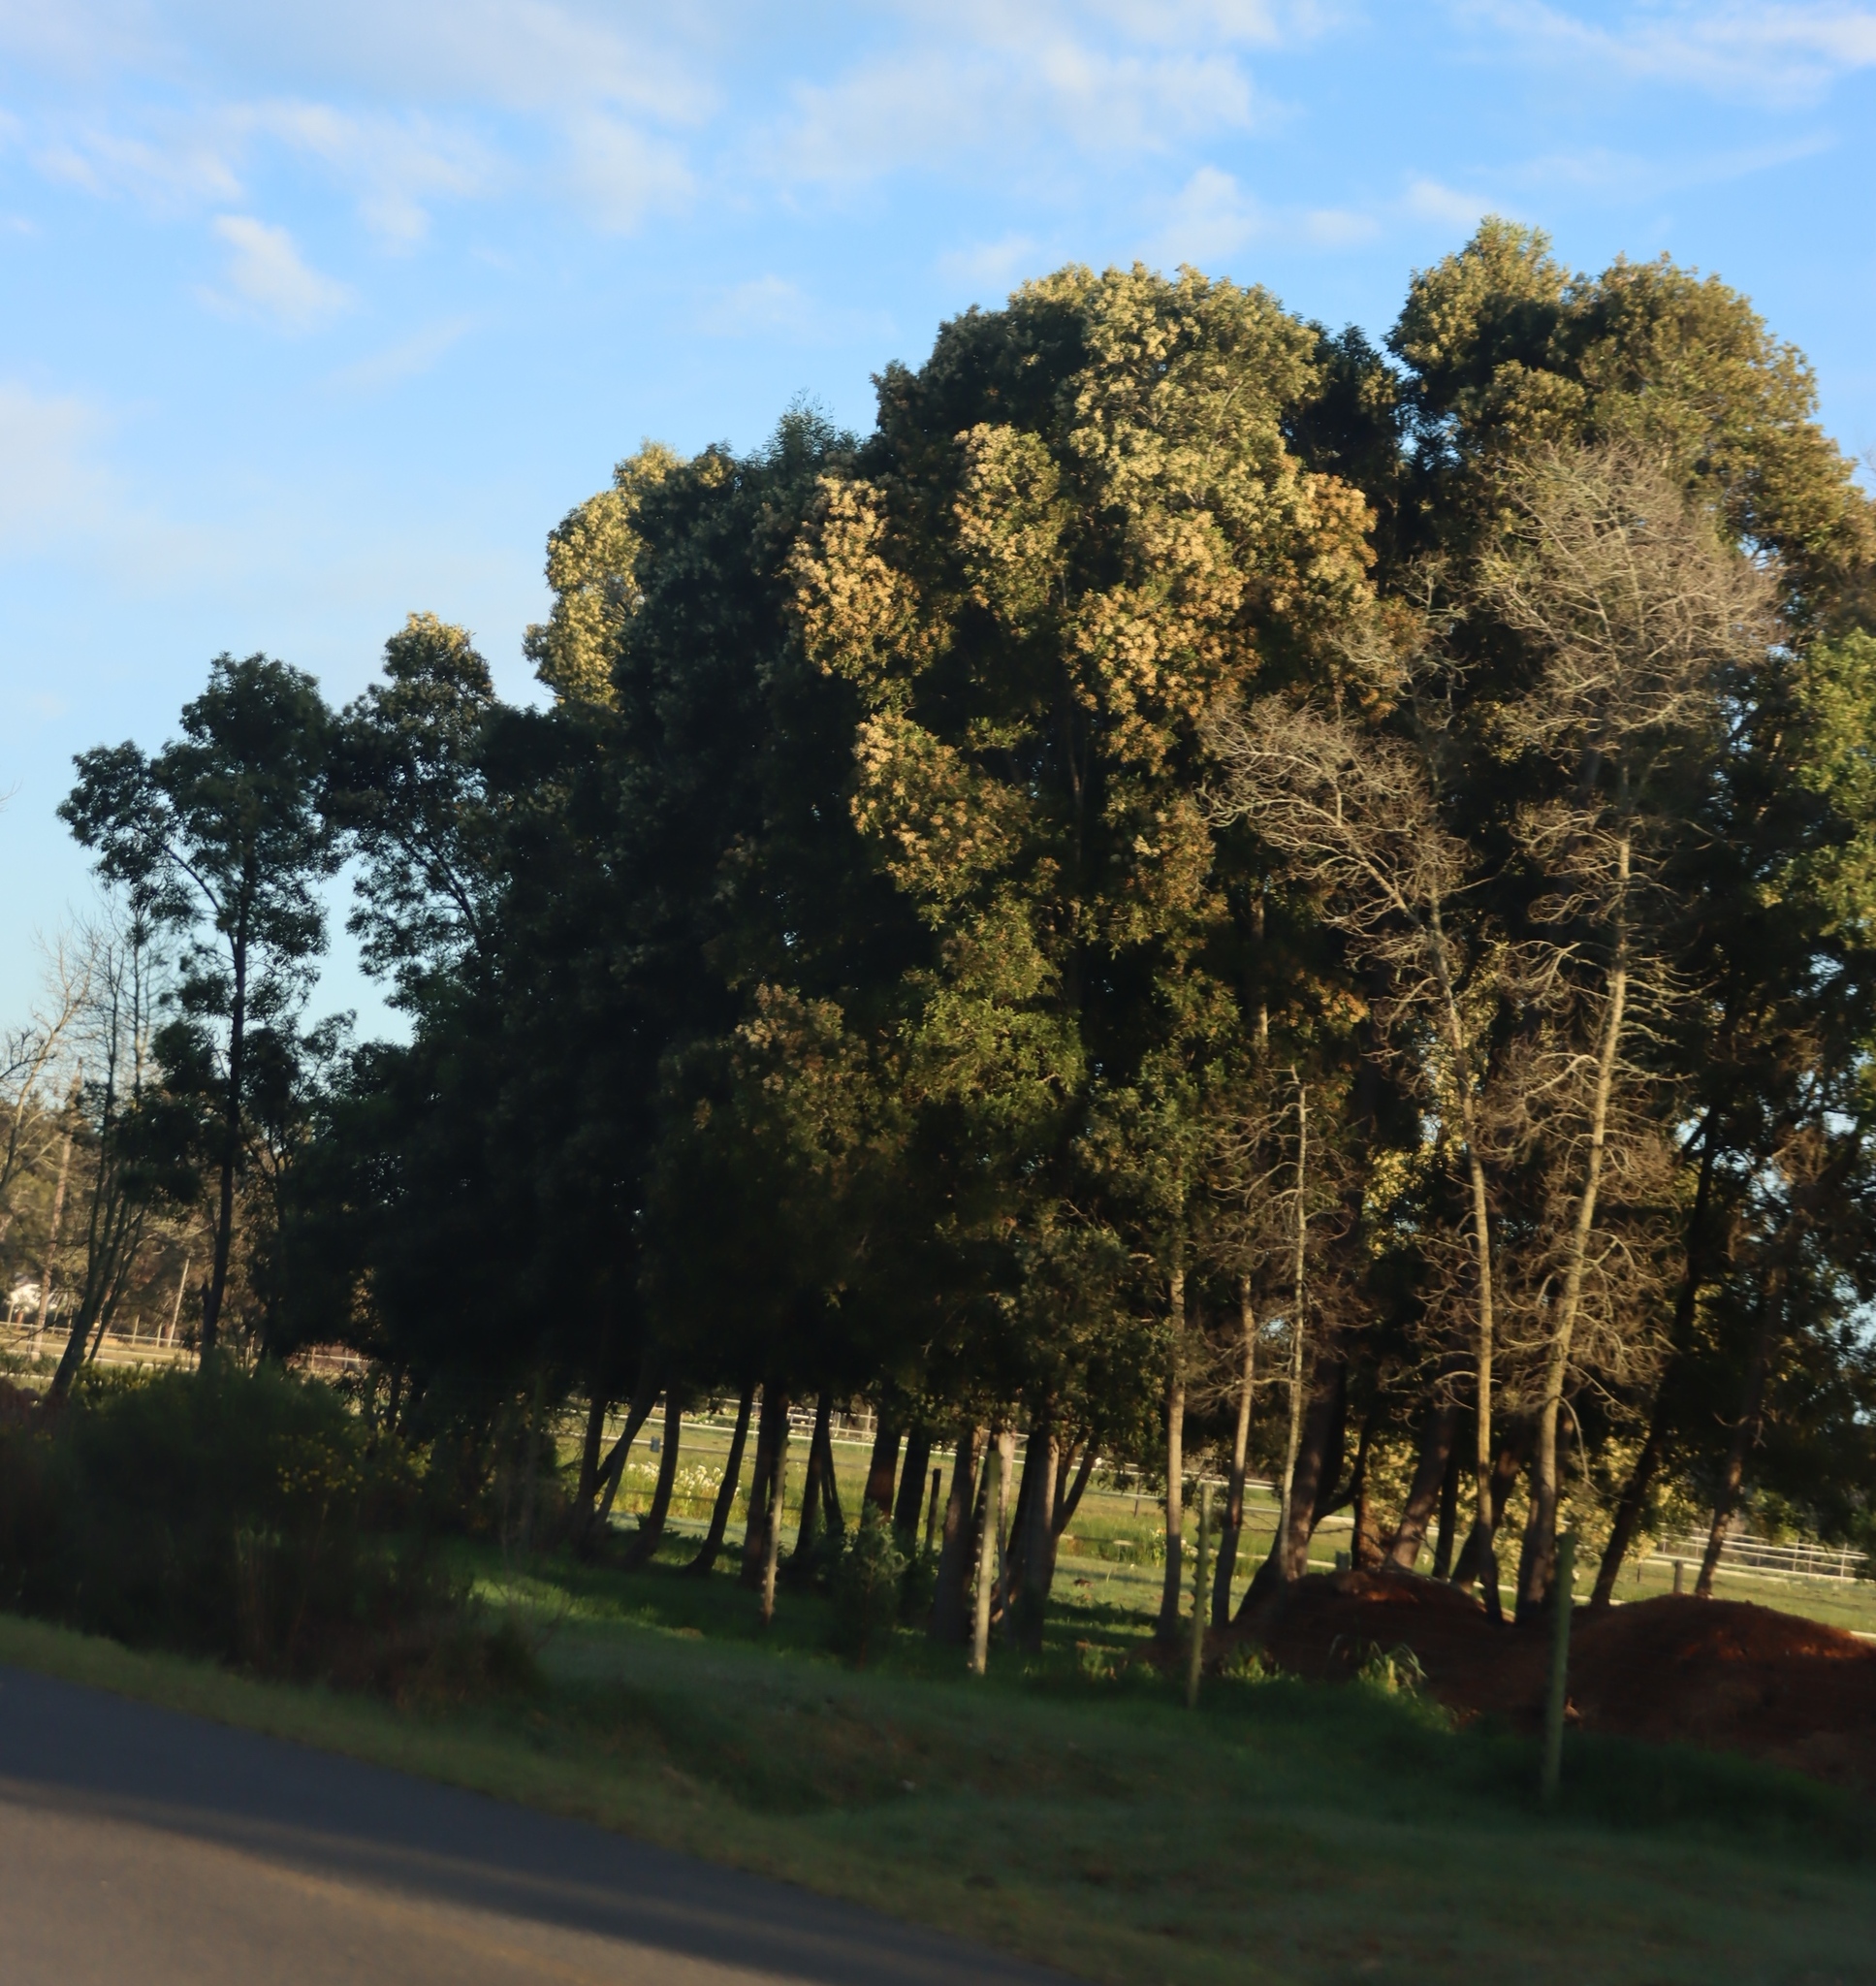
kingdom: Plantae
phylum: Tracheophyta
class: Magnoliopsida
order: Fabales
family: Fabaceae
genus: Acacia
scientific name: Acacia mearnsii
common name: Black wattle
